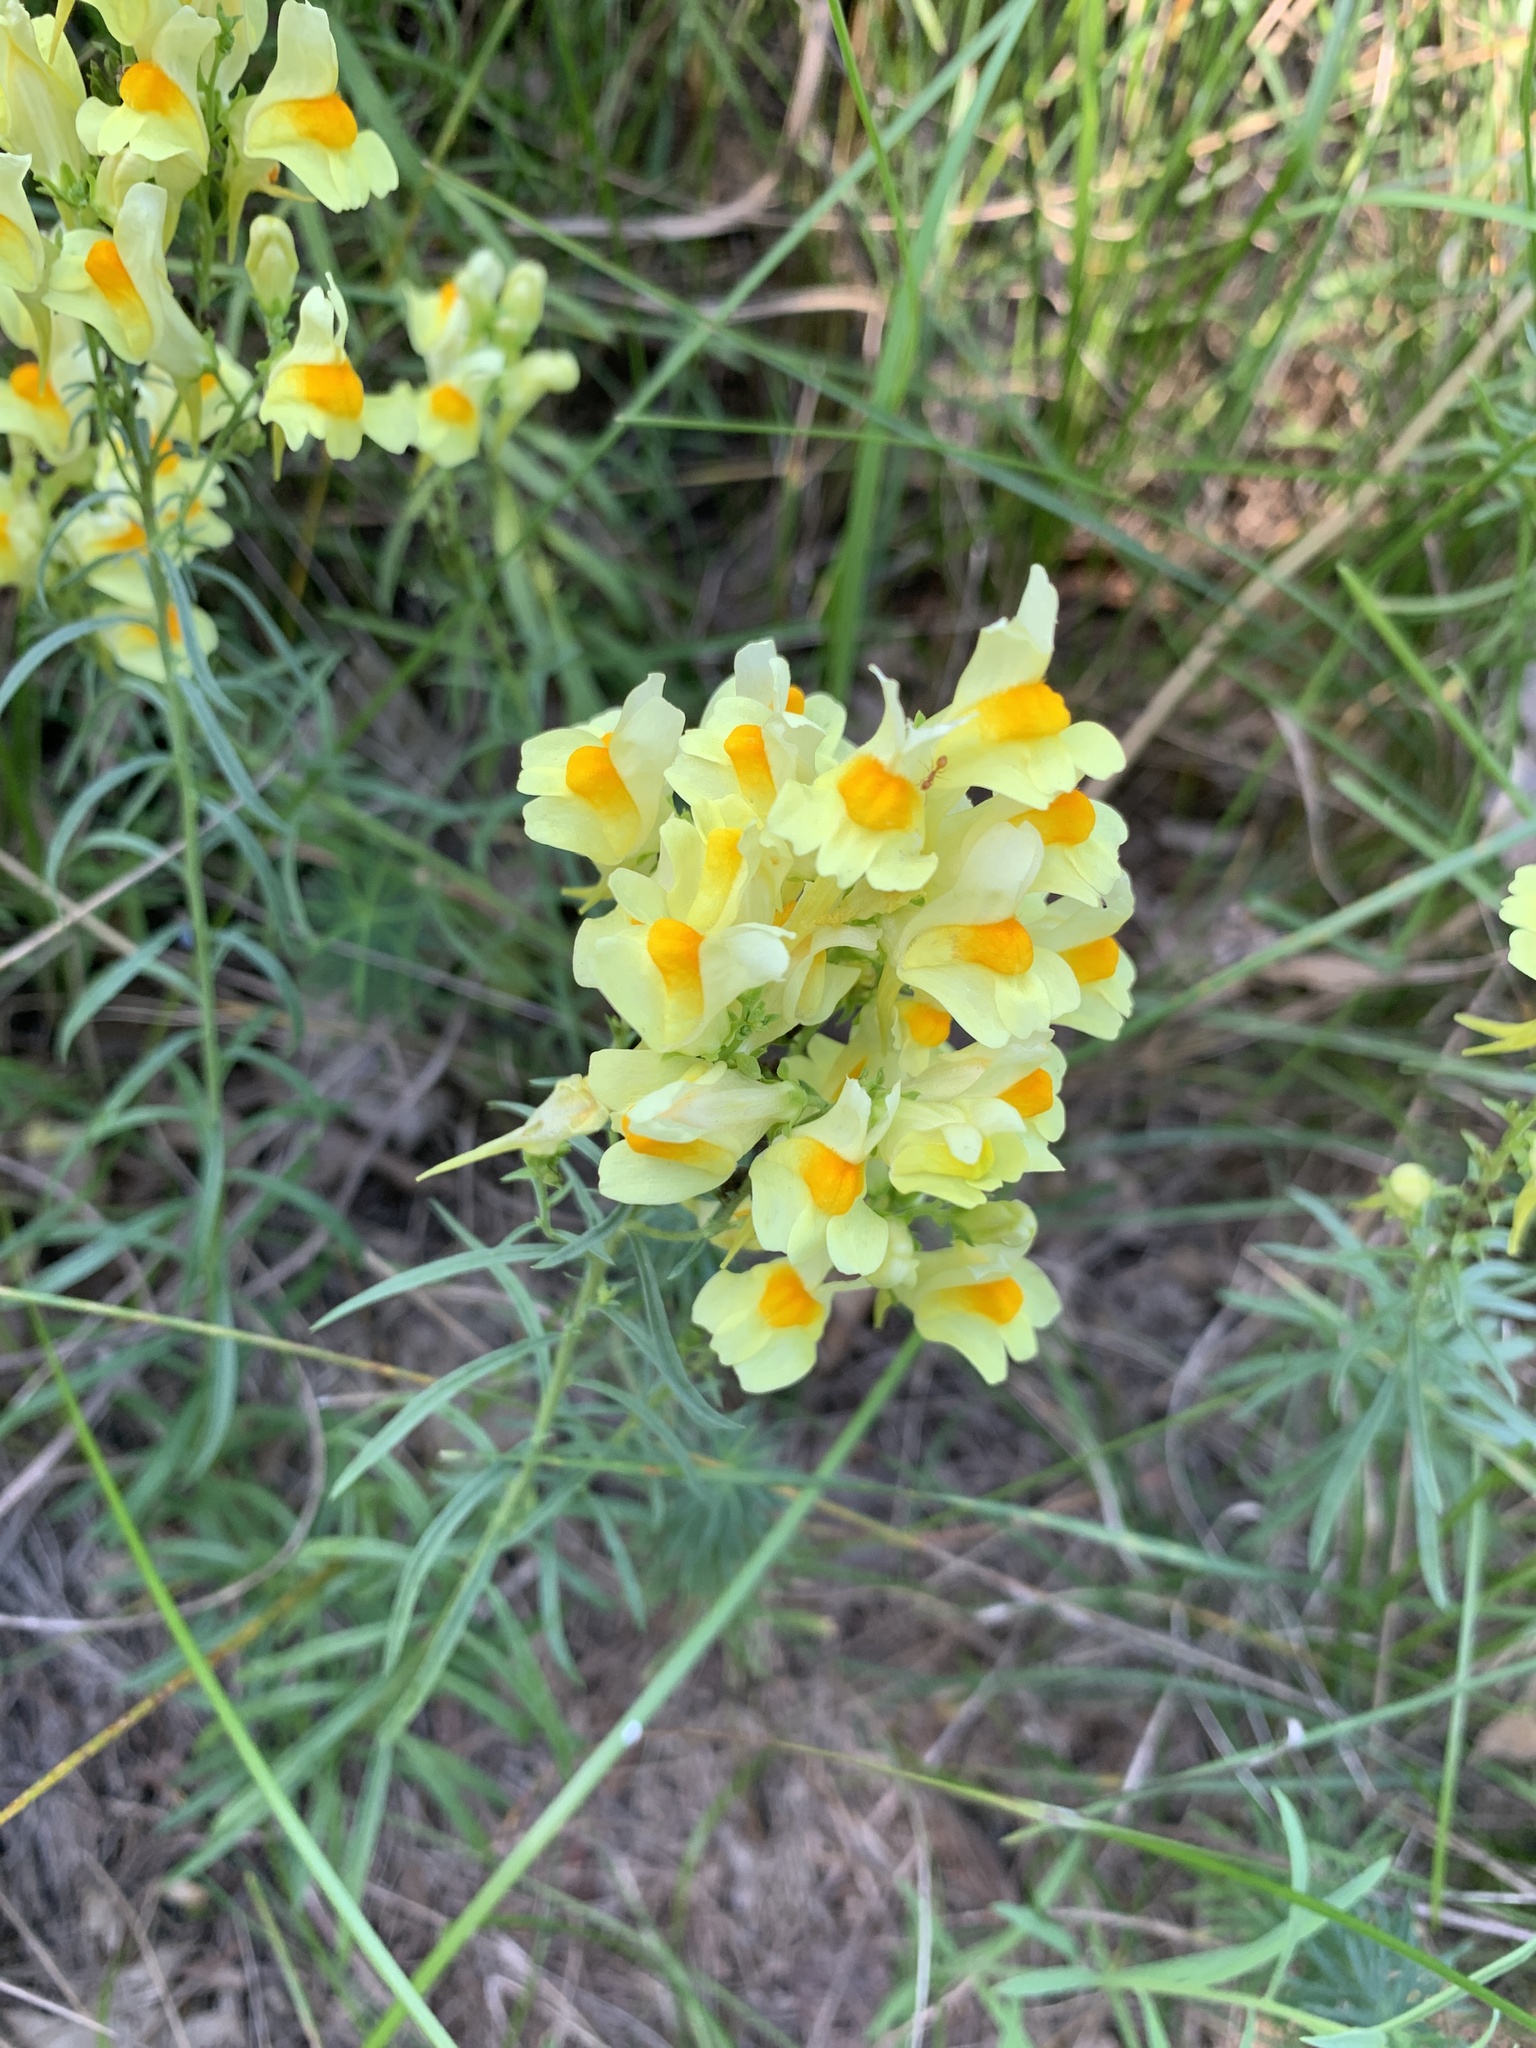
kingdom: Plantae
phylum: Tracheophyta
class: Magnoliopsida
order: Lamiales
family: Plantaginaceae
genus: Linaria
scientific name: Linaria vulgaris
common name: Butter and eggs
